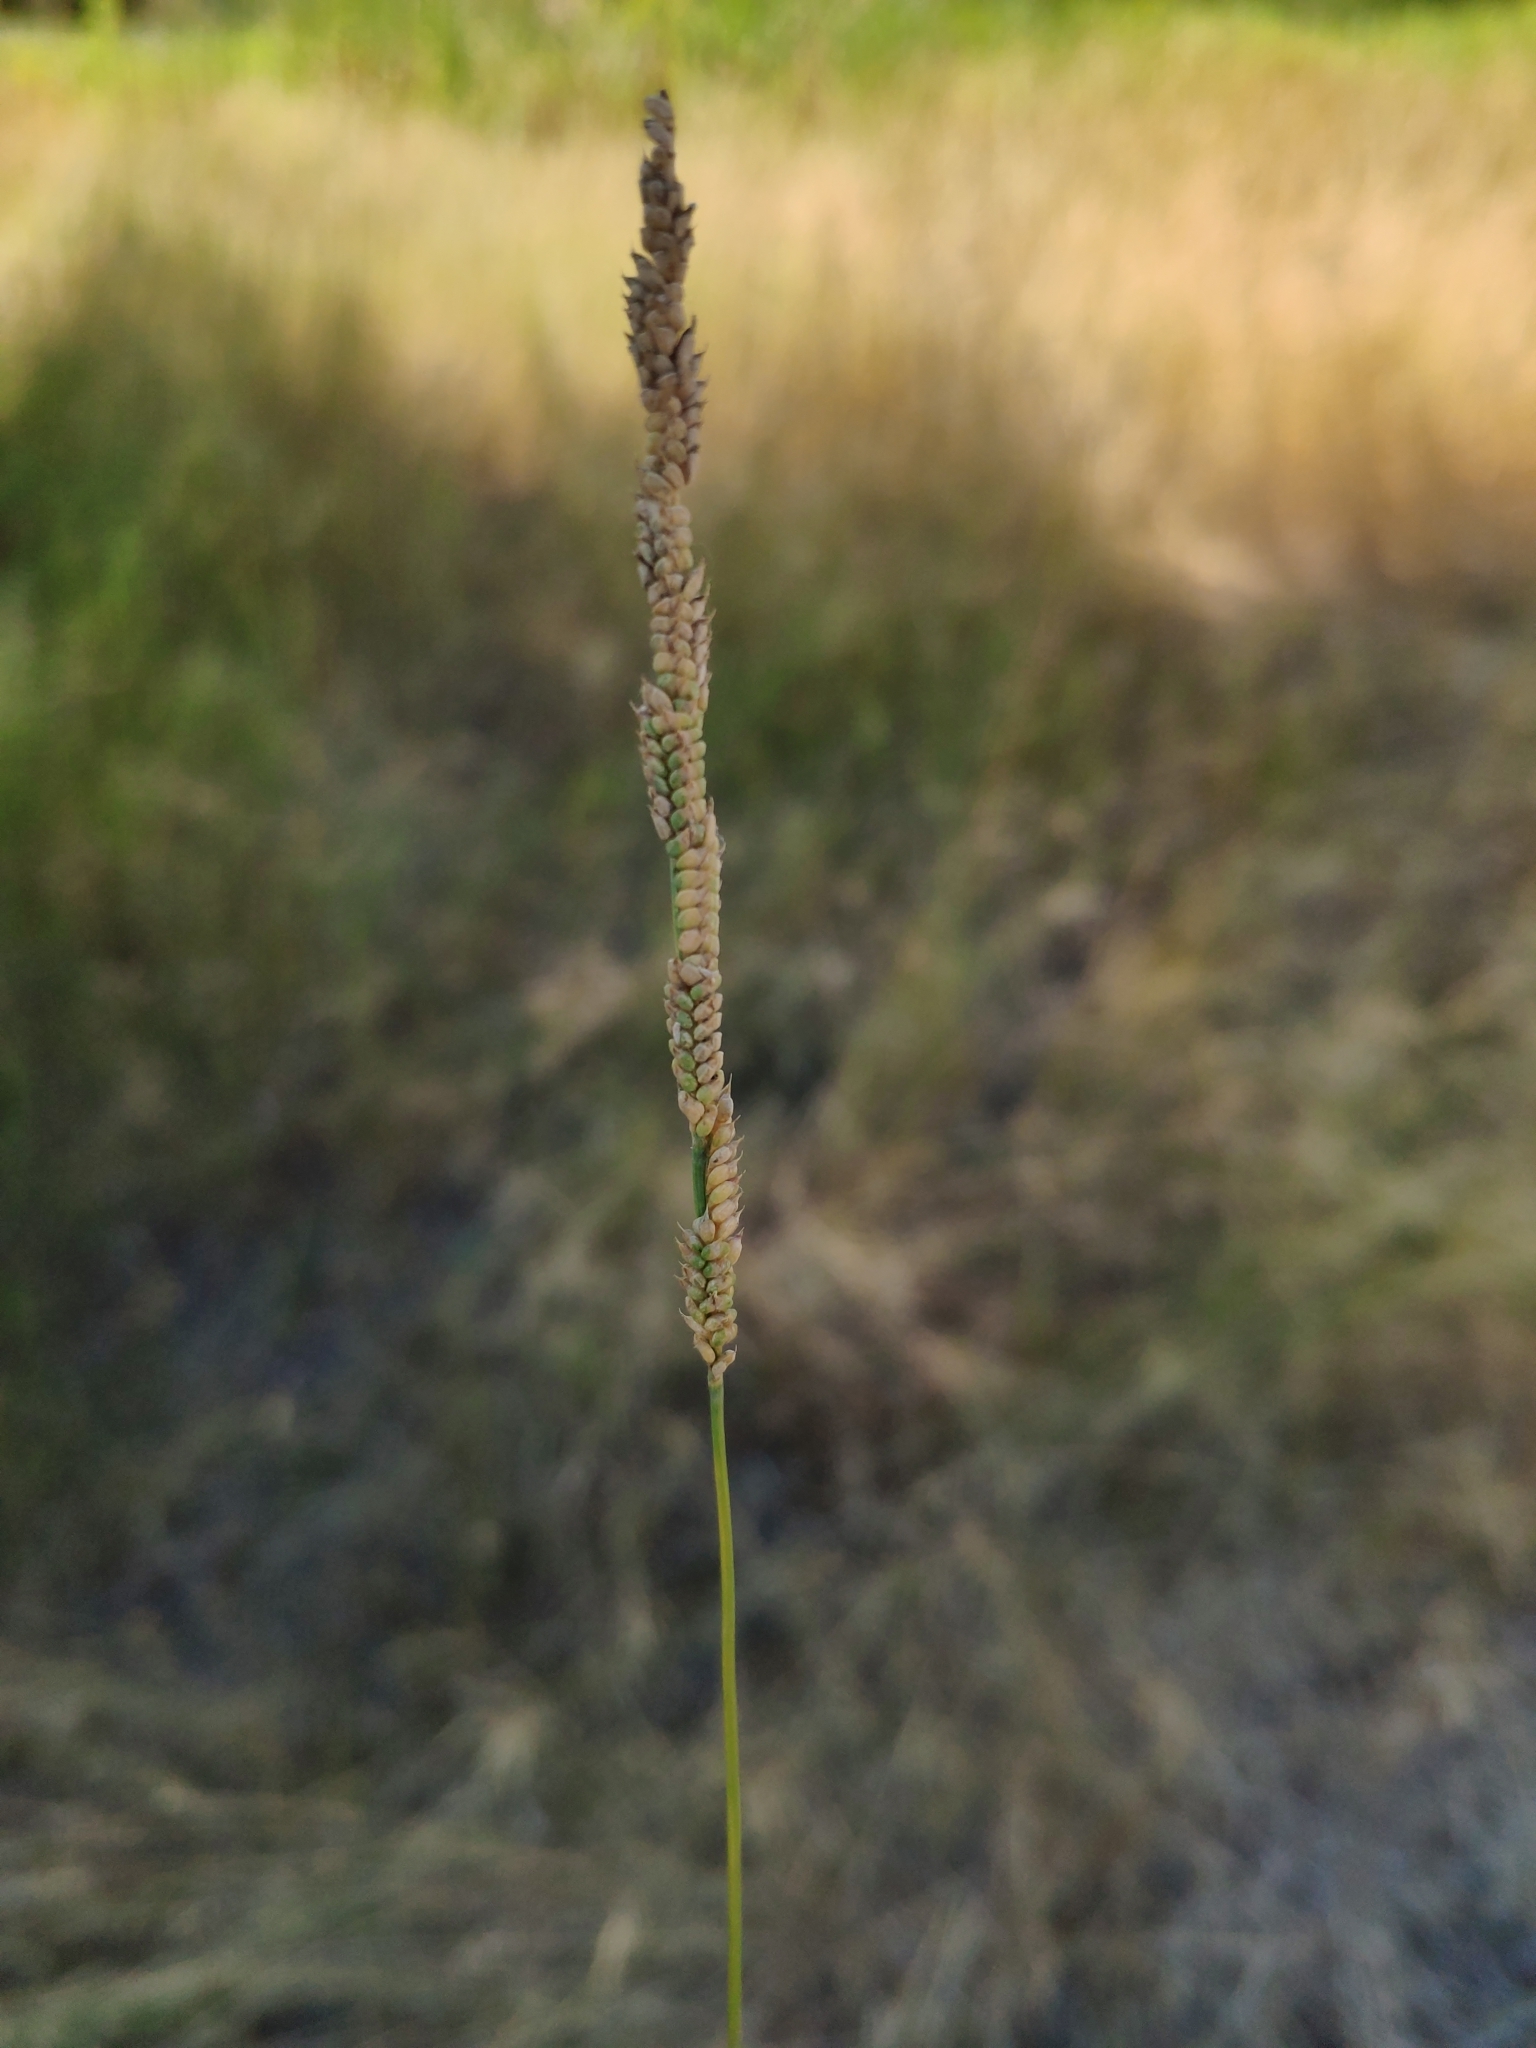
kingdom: Plantae
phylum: Tracheophyta
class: Liliopsida
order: Poales
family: Poaceae
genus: Beckmannia
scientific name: Beckmannia eruciformis
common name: European slough-grass
